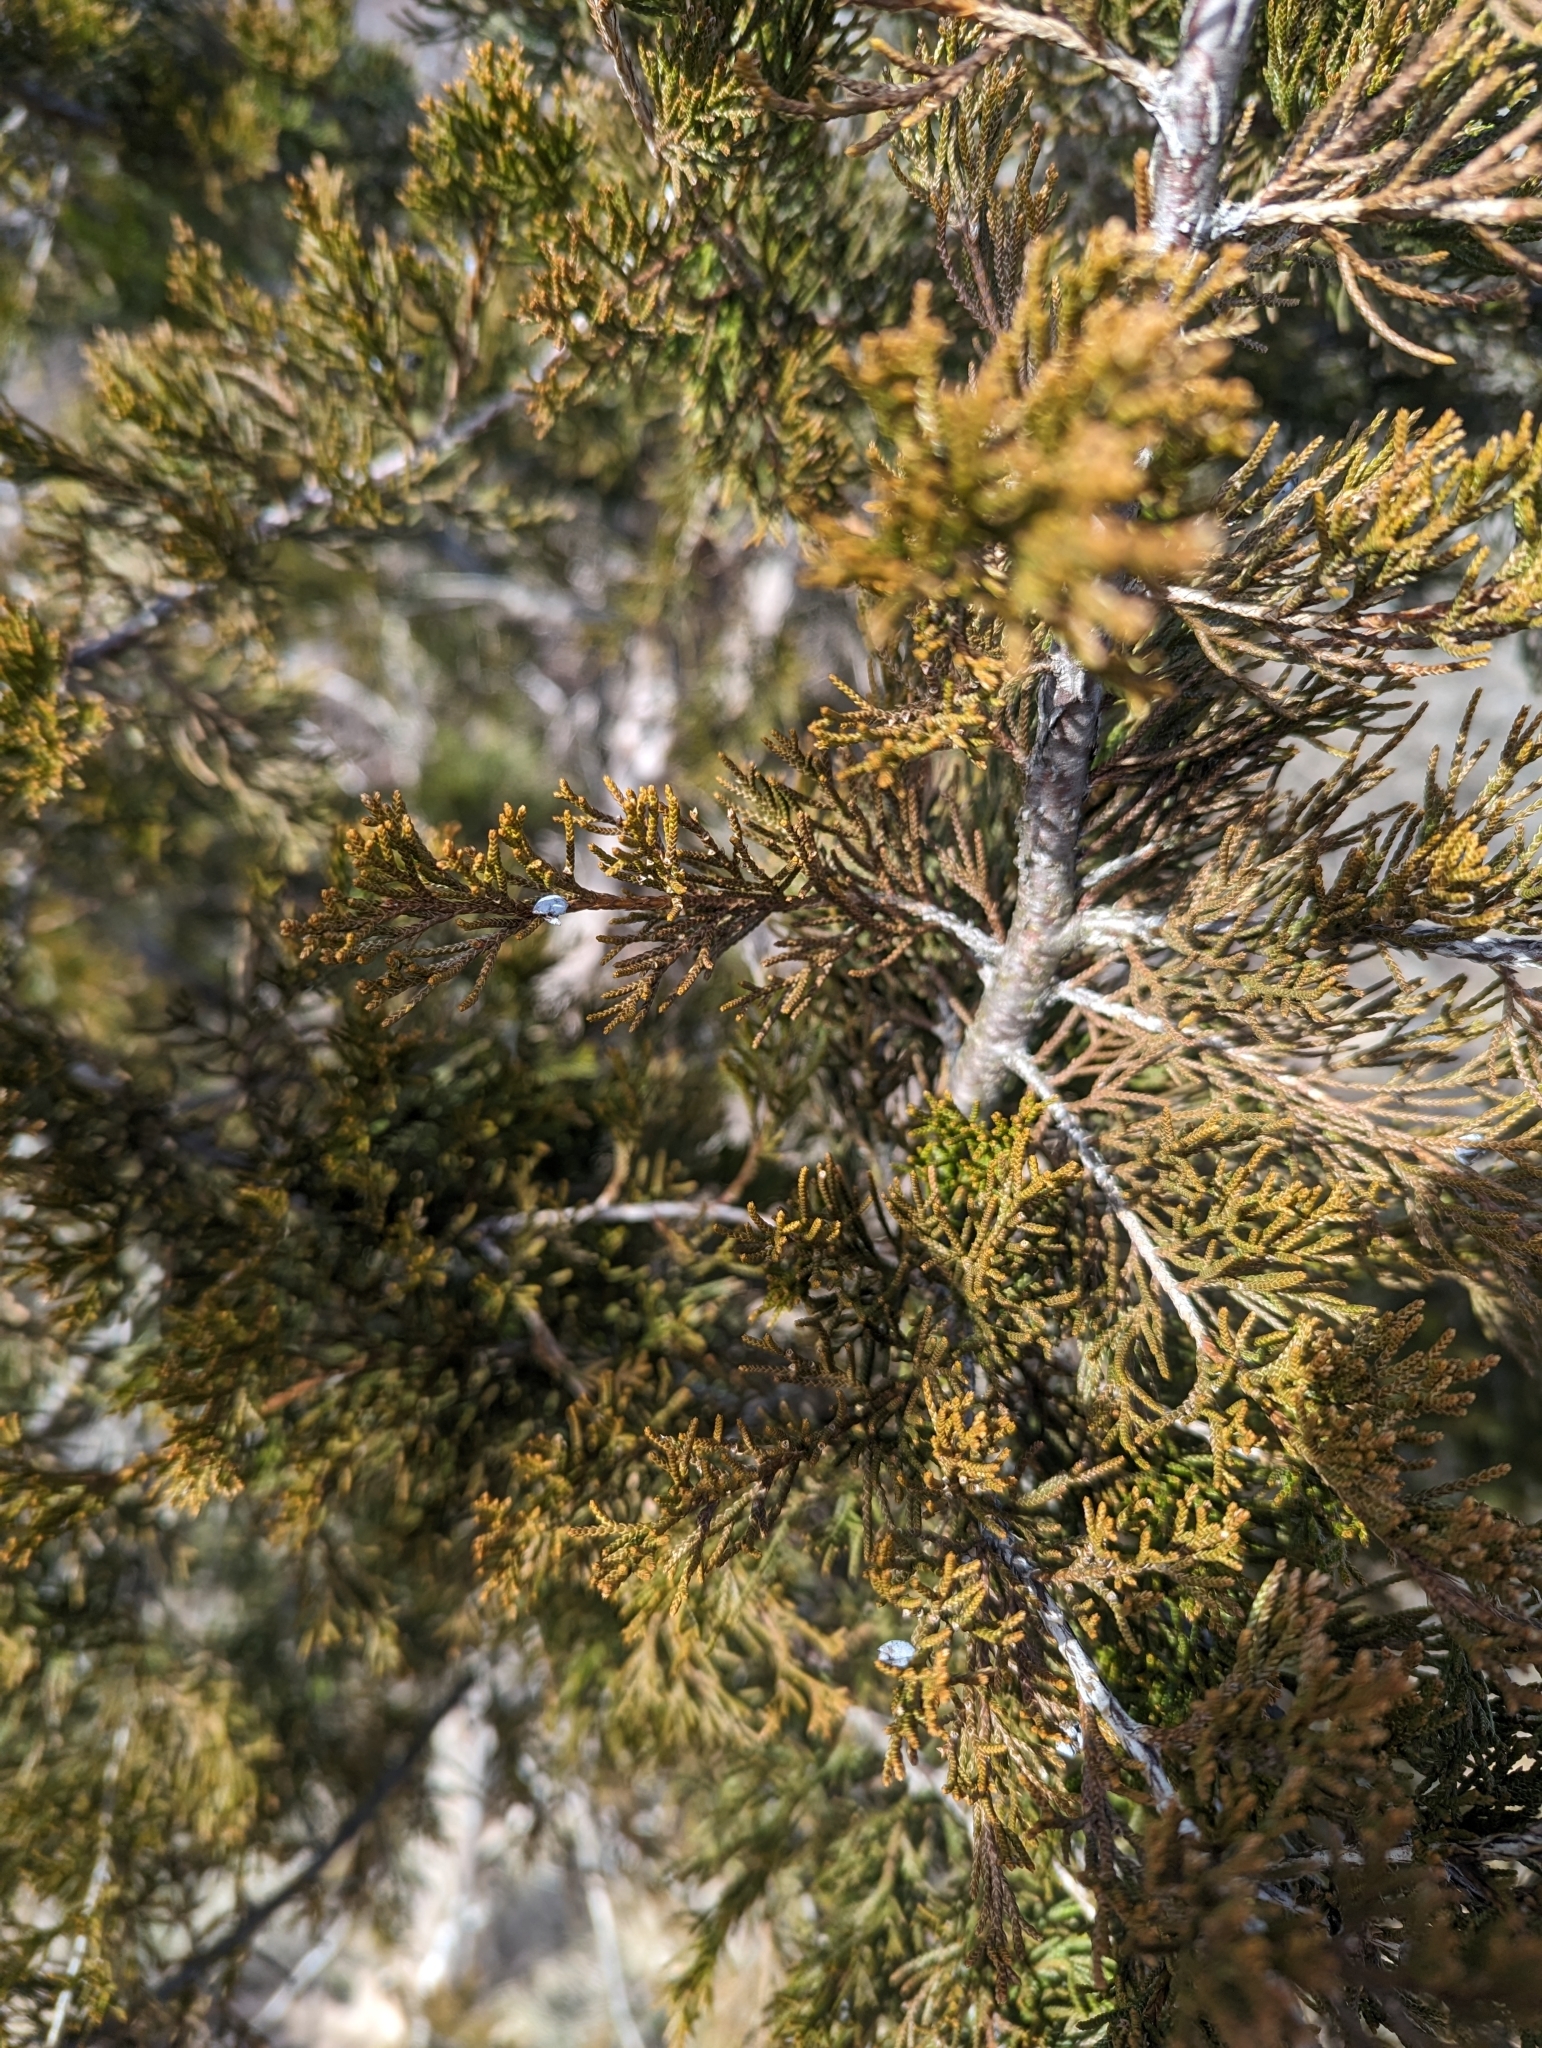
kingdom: Plantae
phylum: Tracheophyta
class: Pinopsida
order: Pinales
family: Cupressaceae
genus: Juniperus
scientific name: Juniperus virginiana
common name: Red juniper
